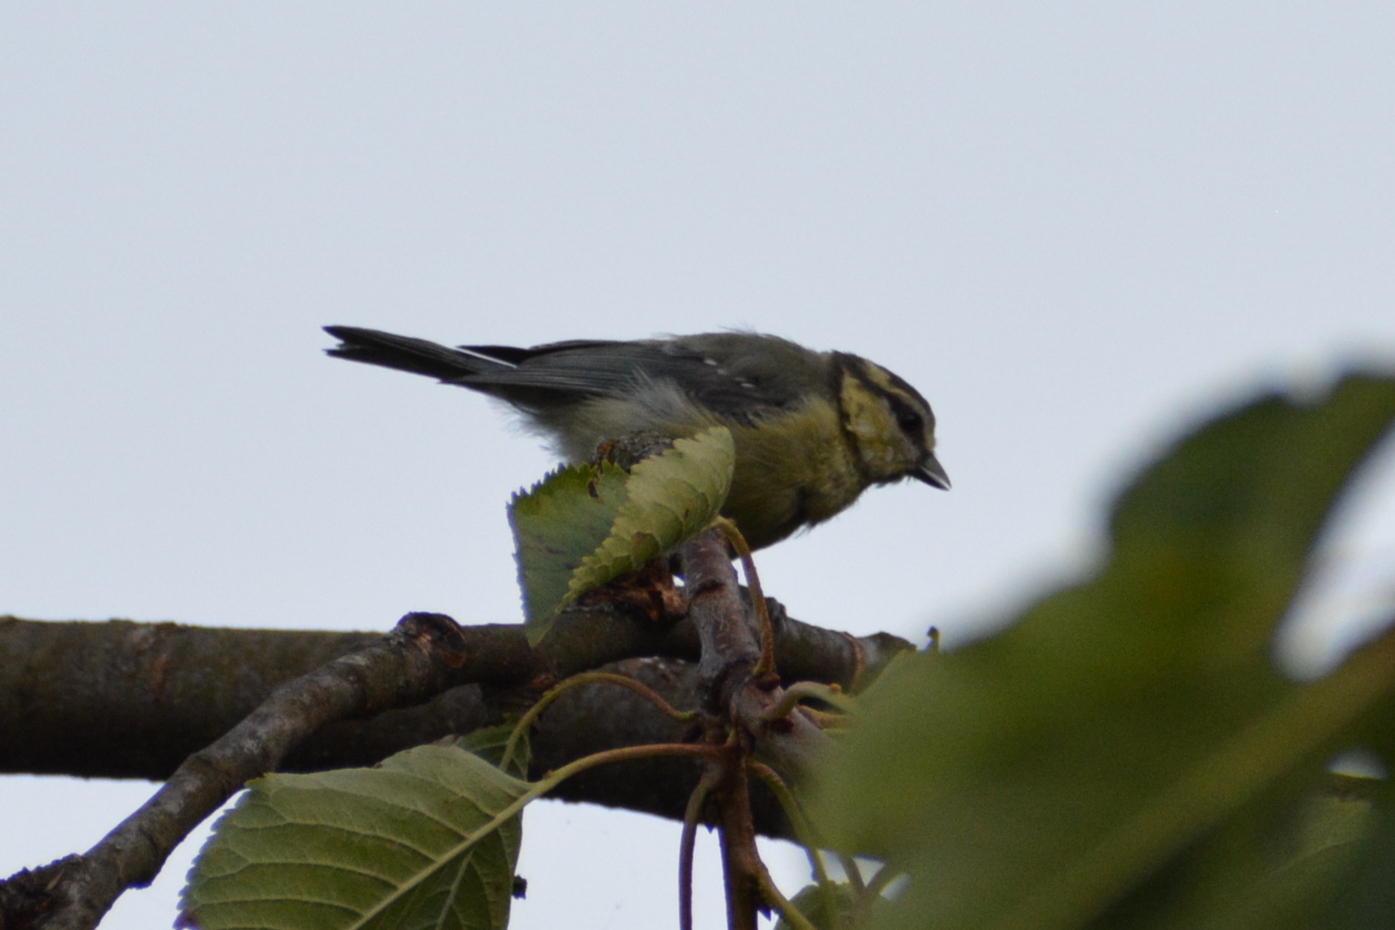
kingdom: Animalia
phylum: Chordata
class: Aves
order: Passeriformes
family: Paridae
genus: Cyanistes
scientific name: Cyanistes caeruleus
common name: Eurasian blue tit
